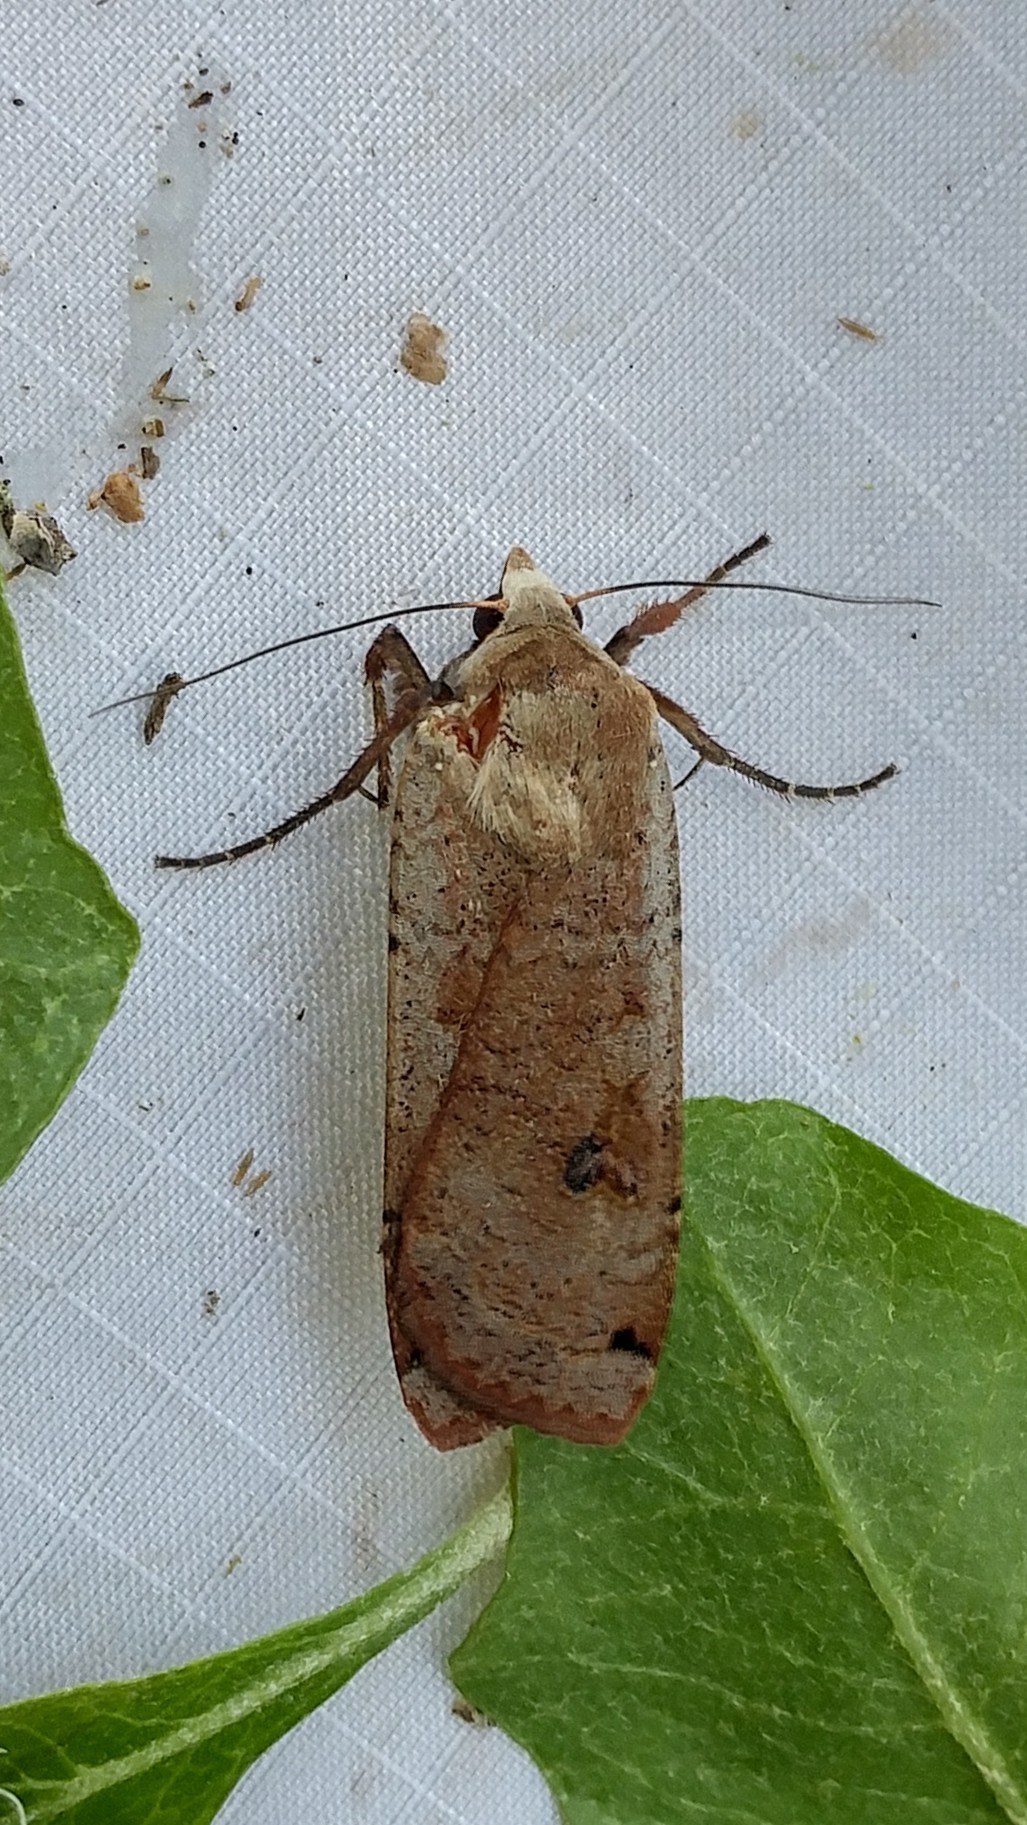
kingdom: Animalia
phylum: Arthropoda
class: Insecta
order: Lepidoptera
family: Noctuidae
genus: Noctua
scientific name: Noctua pronuba
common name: Large yellow underwing
